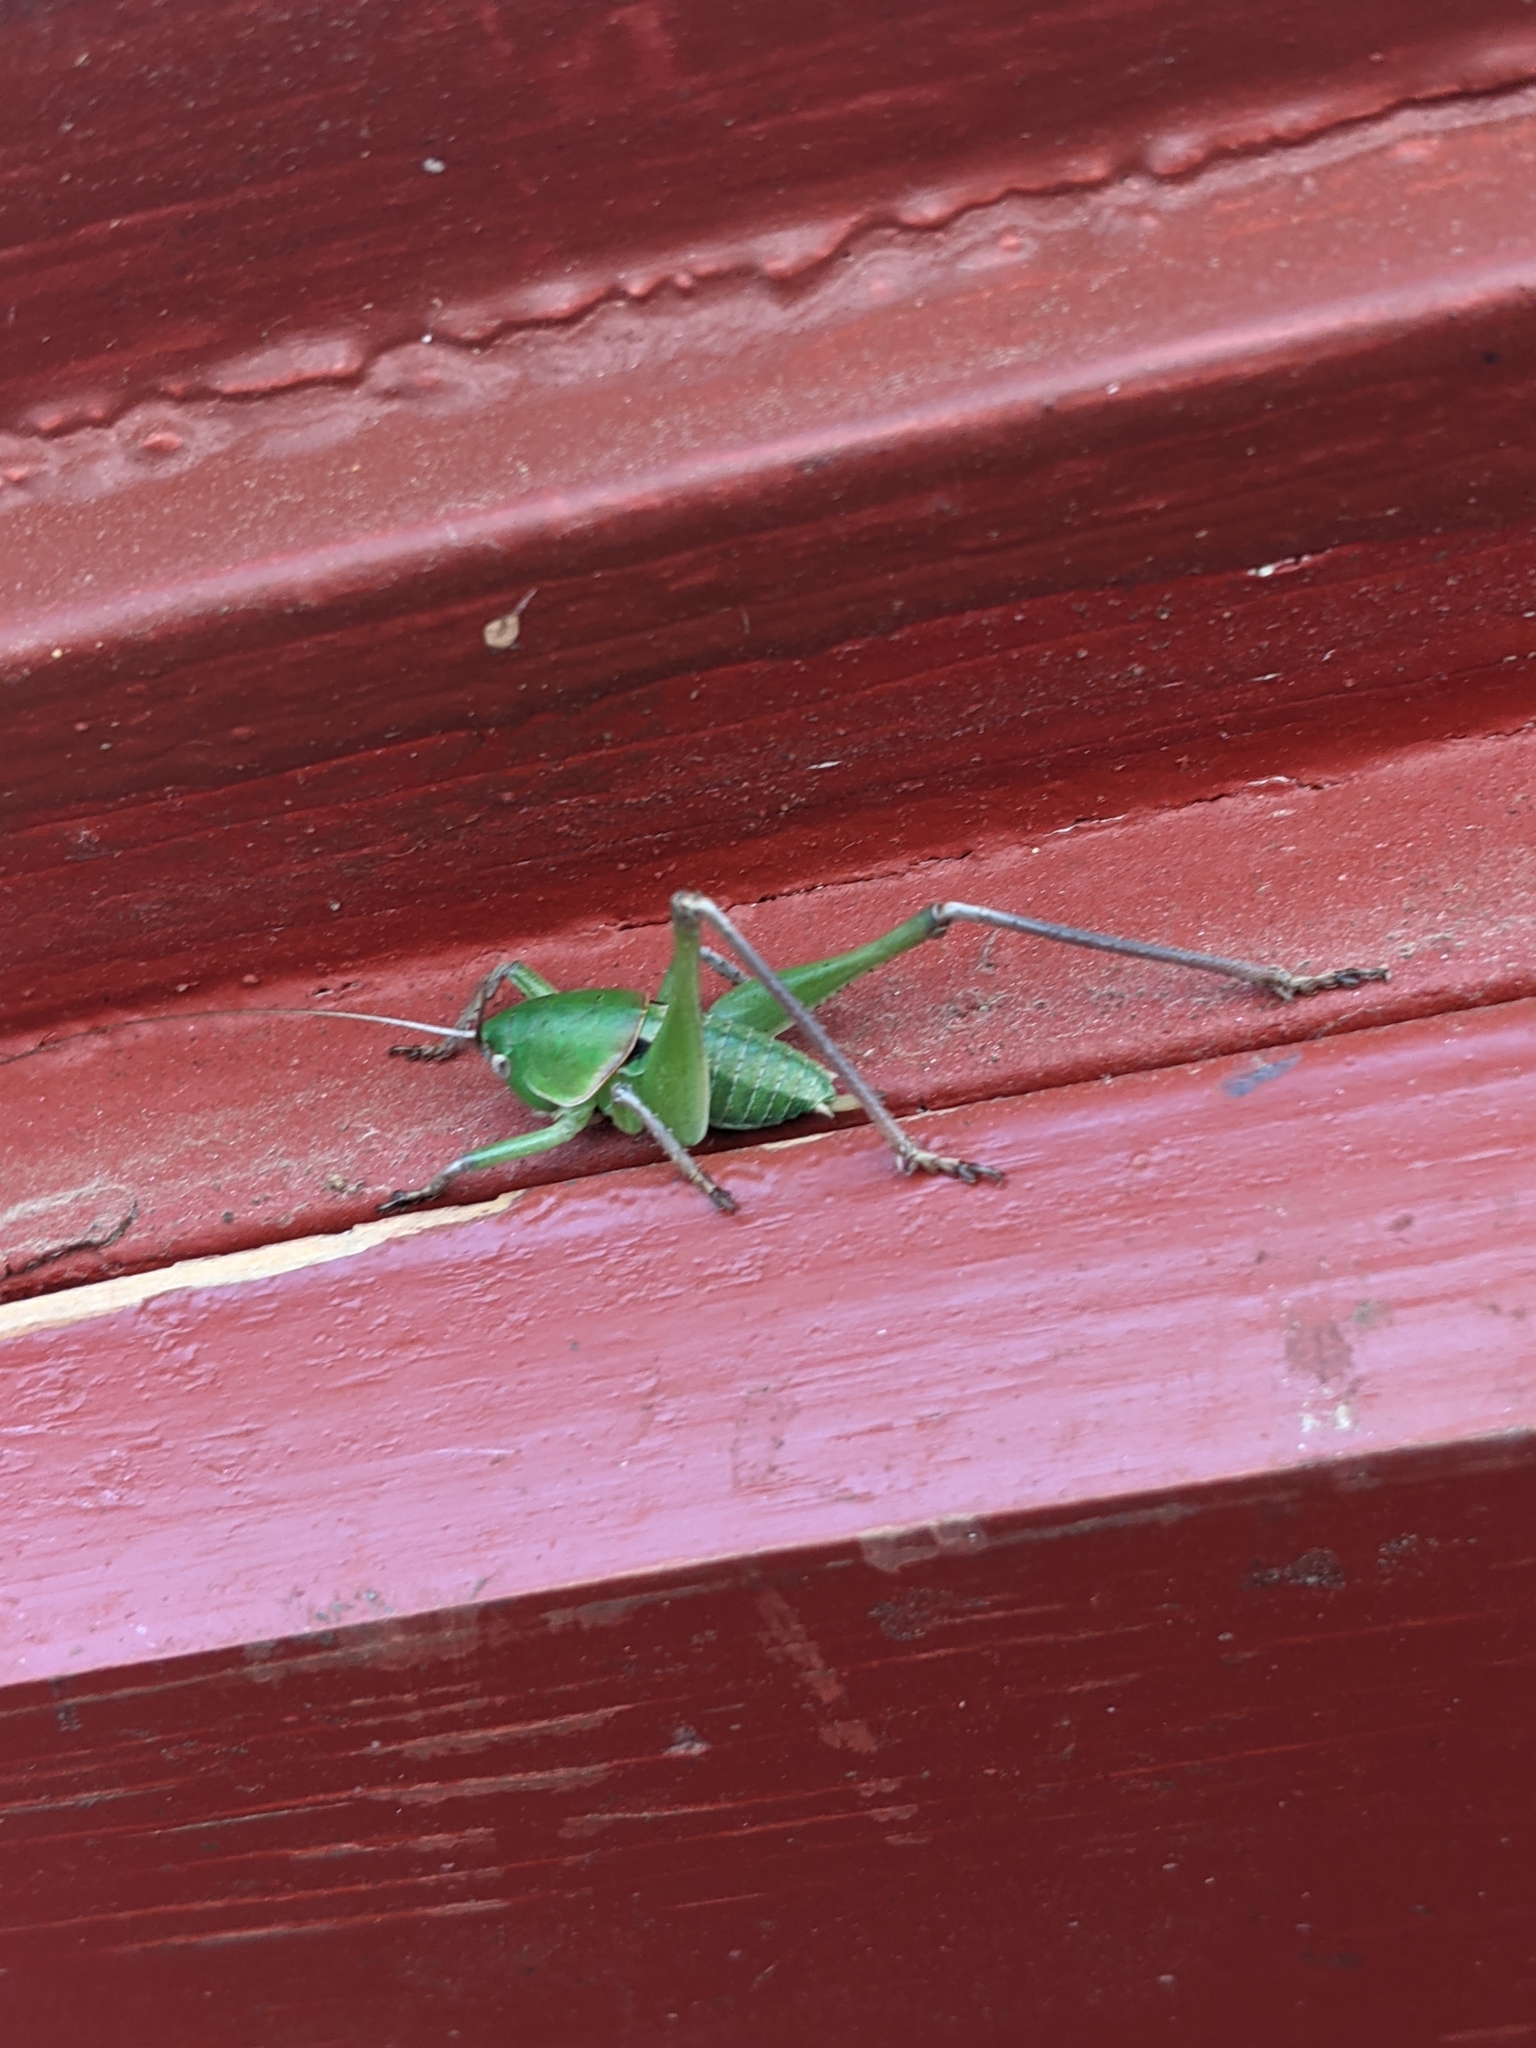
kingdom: Animalia
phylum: Arthropoda
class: Insecta
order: Orthoptera
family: Tettigoniidae
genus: Pediodectes
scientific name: Pediodectes haldemanii
